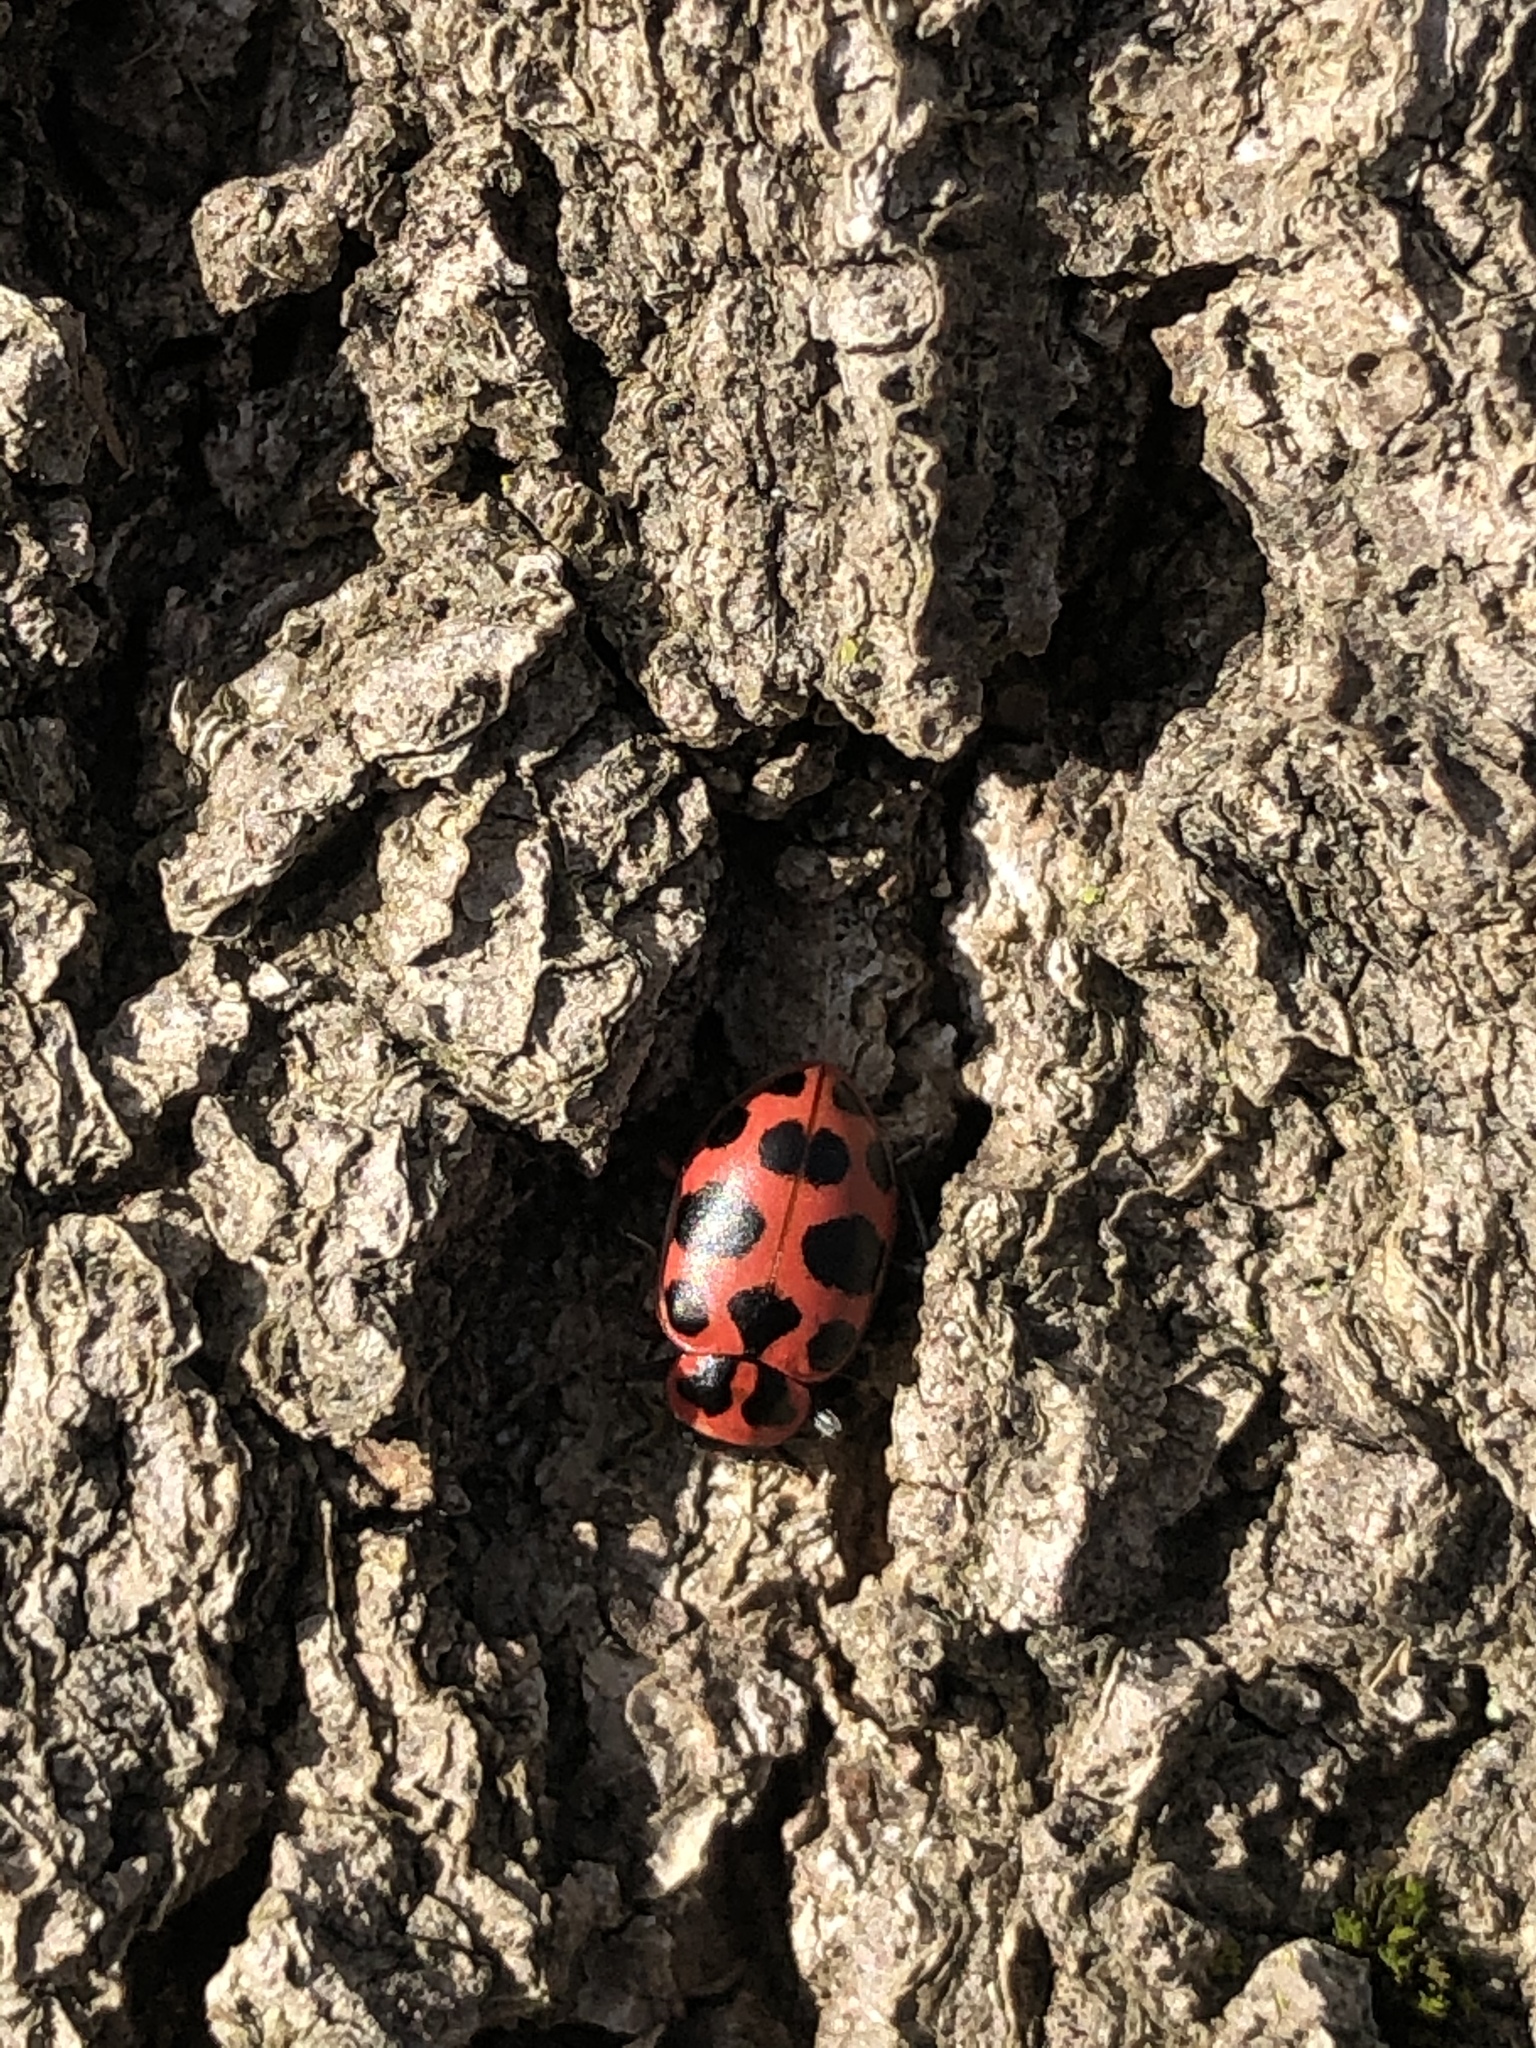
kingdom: Animalia
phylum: Arthropoda
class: Insecta
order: Coleoptera
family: Coccinellidae
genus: Coleomegilla
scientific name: Coleomegilla maculata
